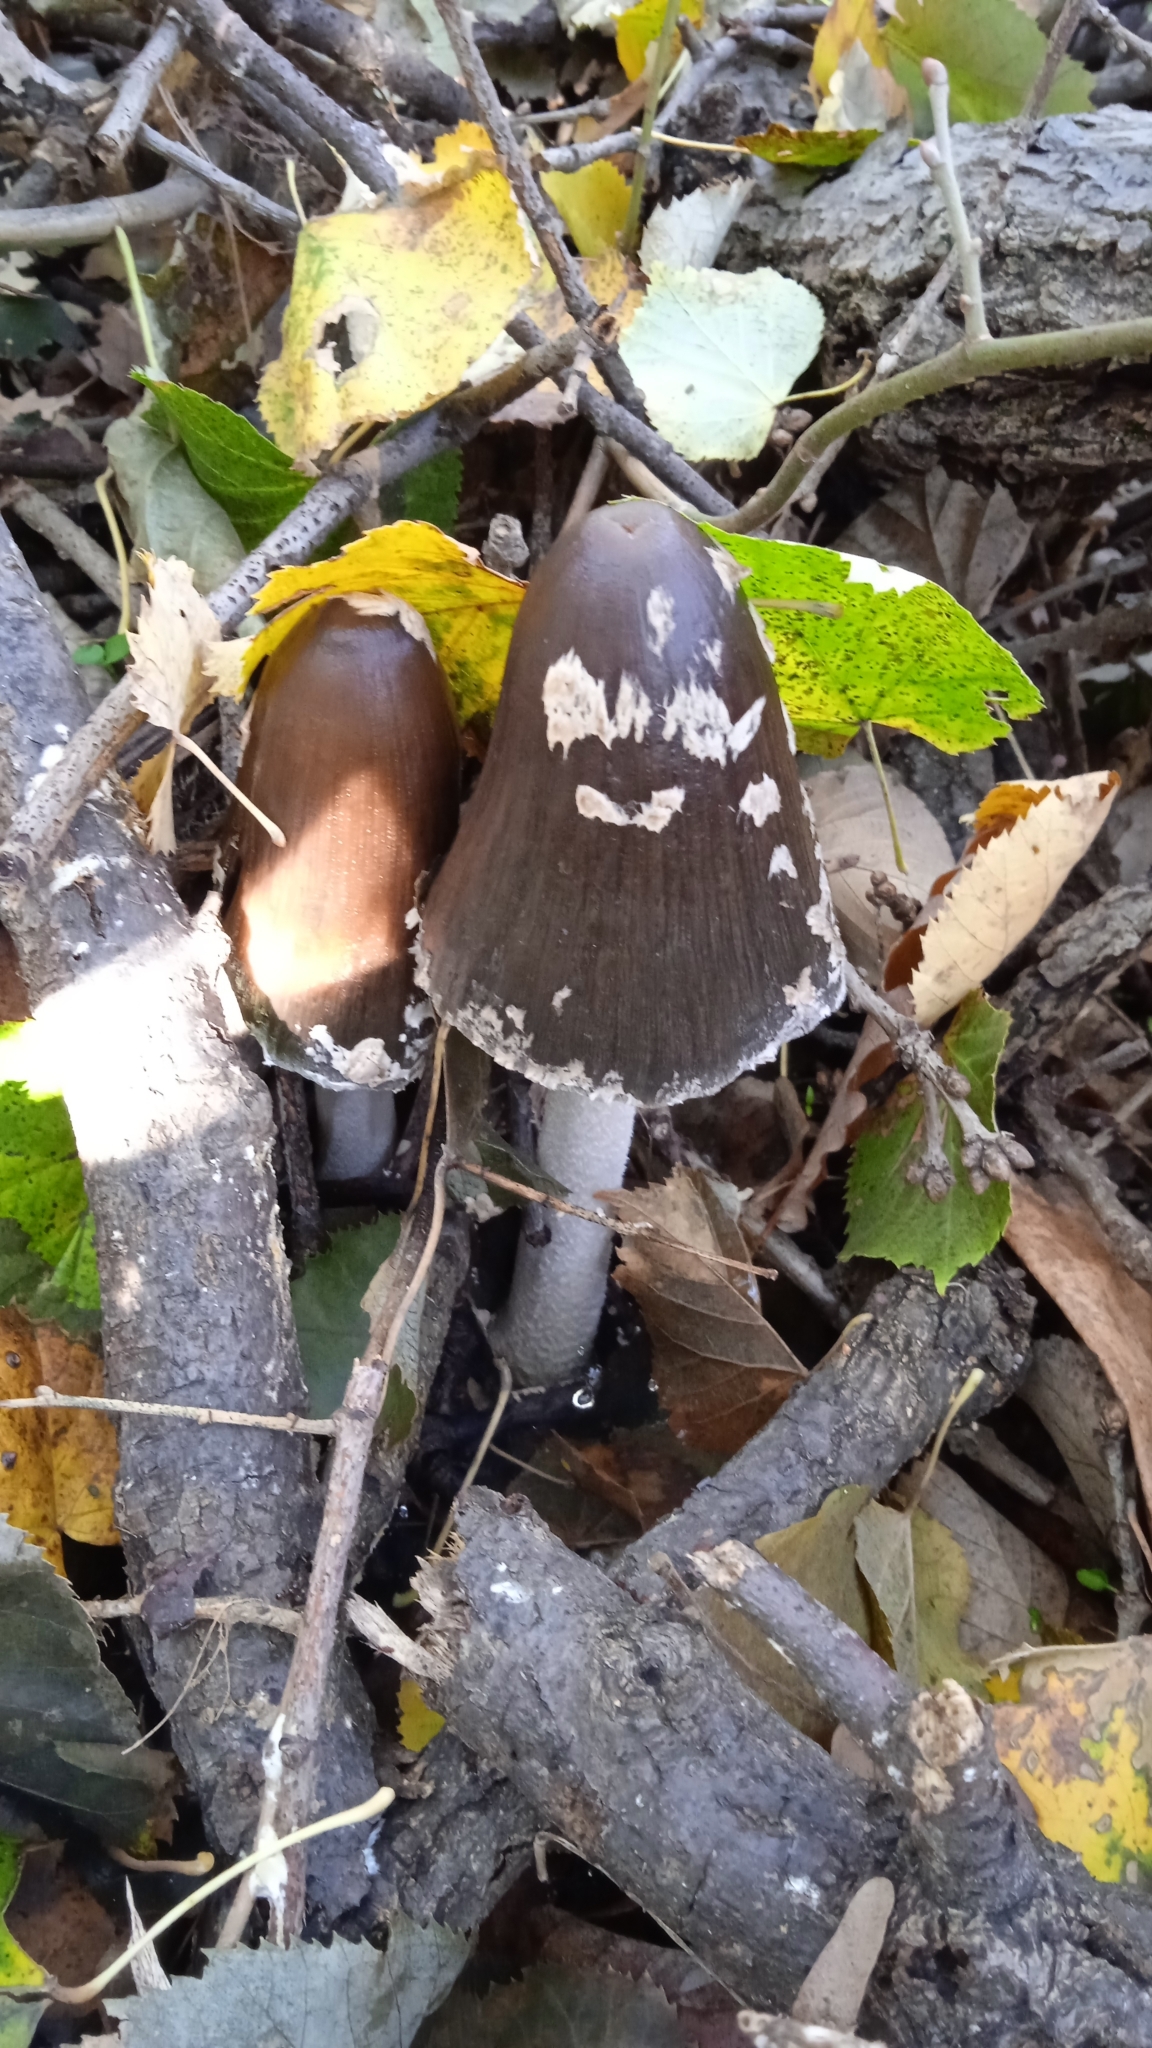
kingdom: Fungi
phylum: Basidiomycota
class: Agaricomycetes
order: Agaricales
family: Psathyrellaceae
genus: Coprinopsis
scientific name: Coprinopsis picacea
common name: Magpie inkcap
